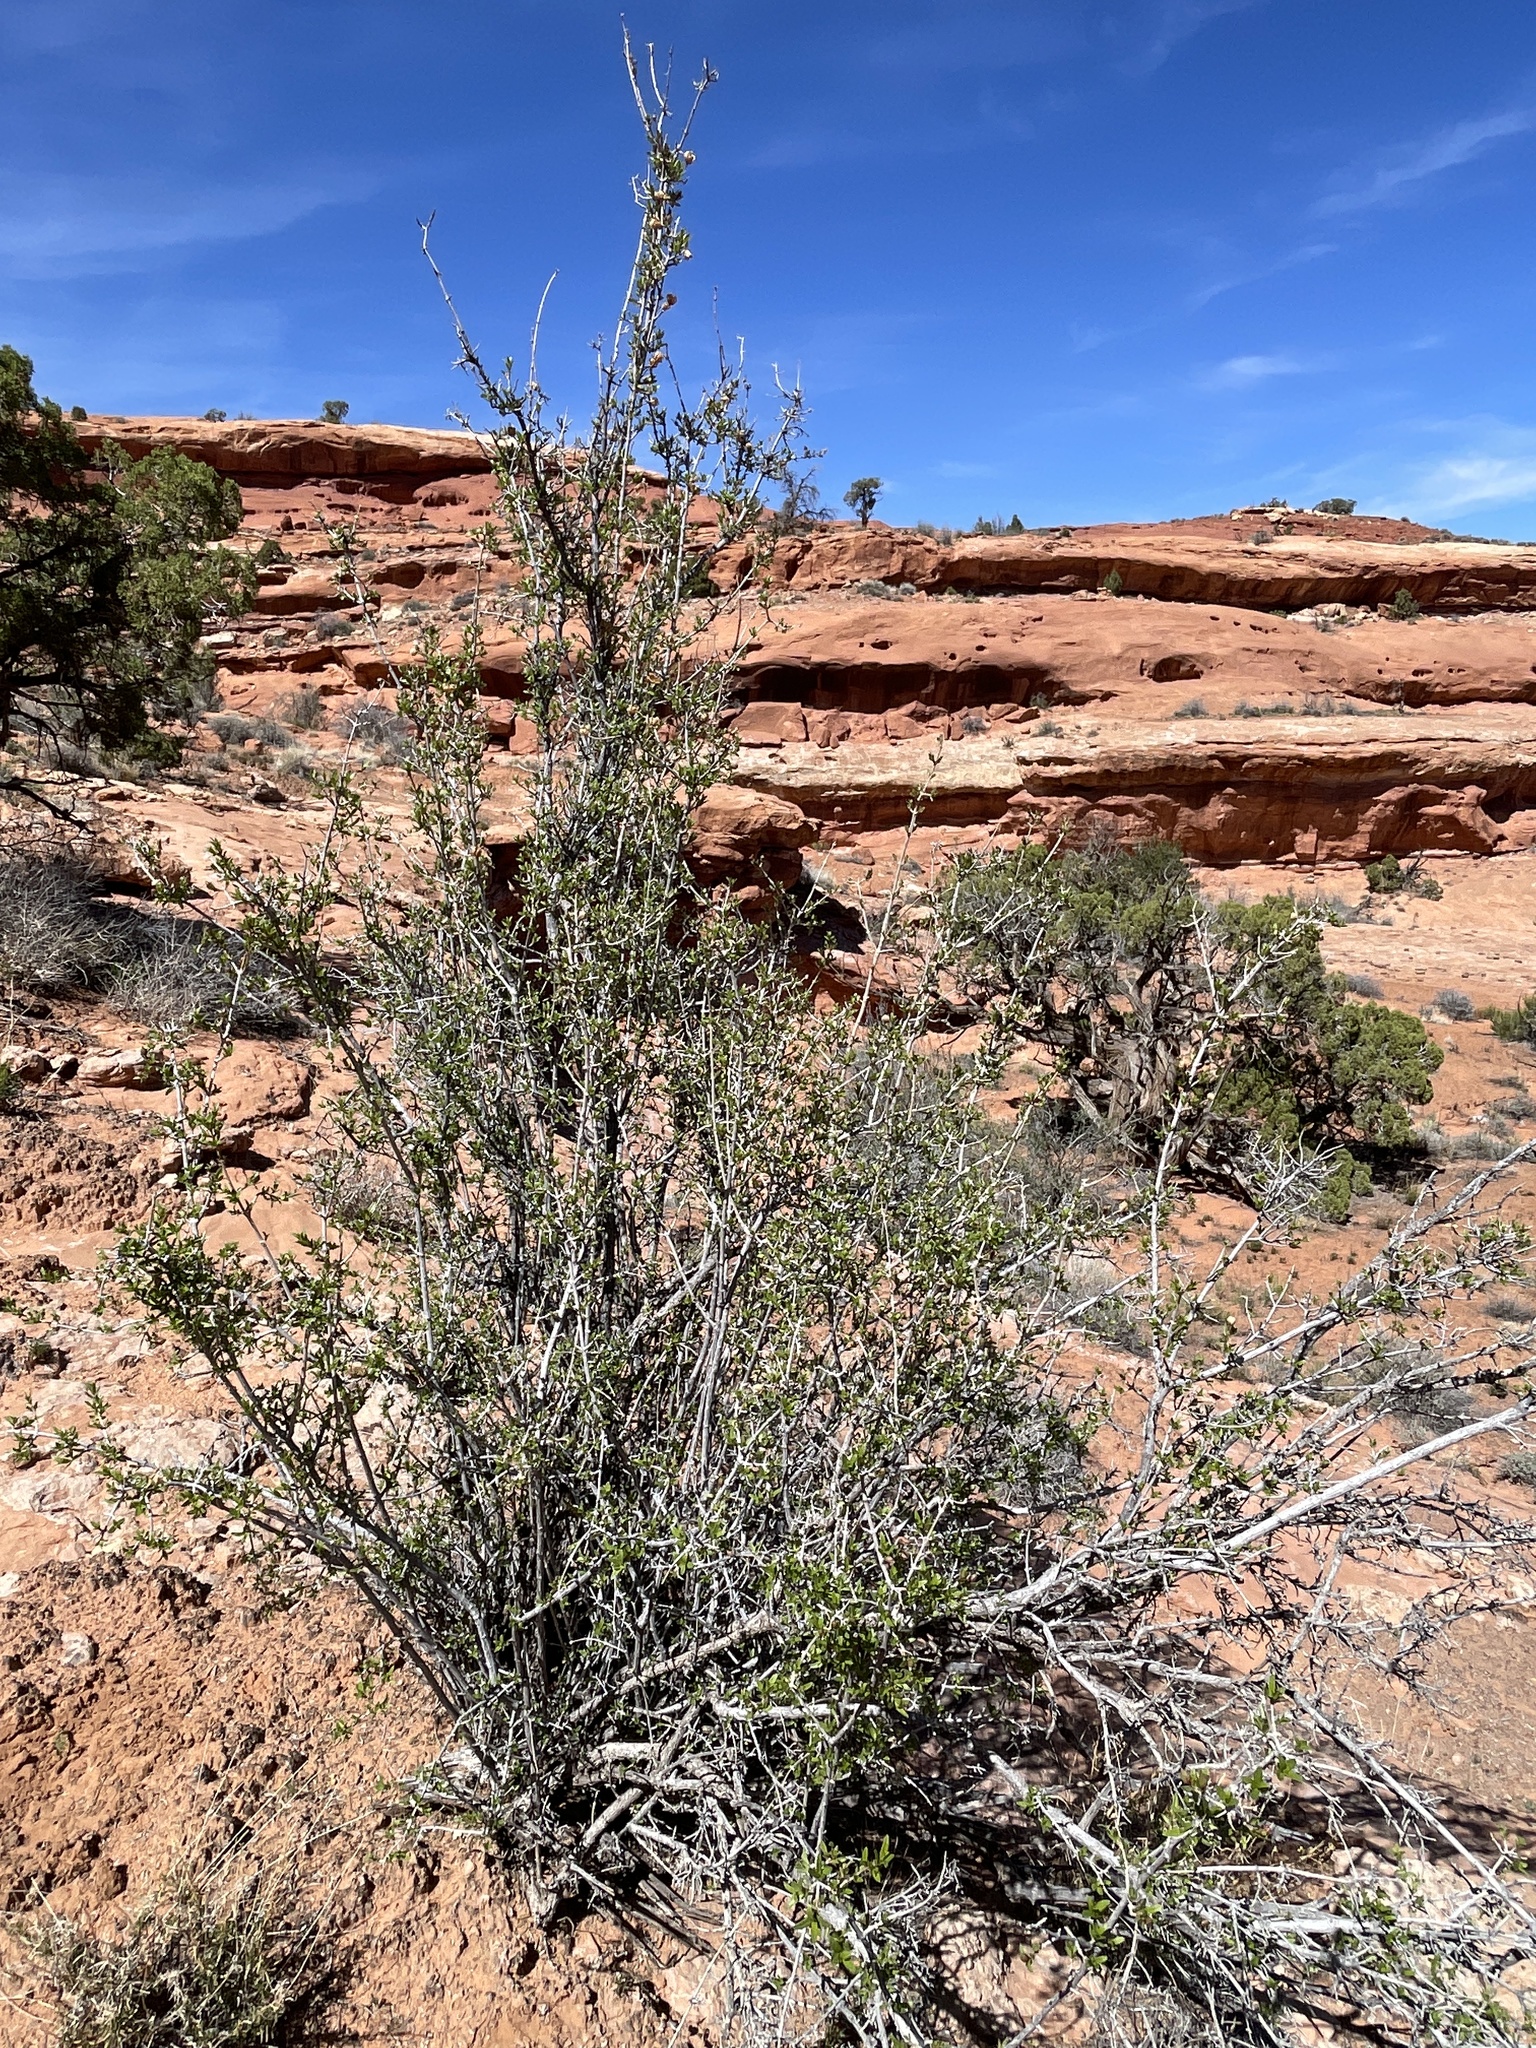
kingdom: Plantae
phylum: Tracheophyta
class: Magnoliopsida
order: Cornales
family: Hydrangeaceae
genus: Fendlera
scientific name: Fendlera rupicola
